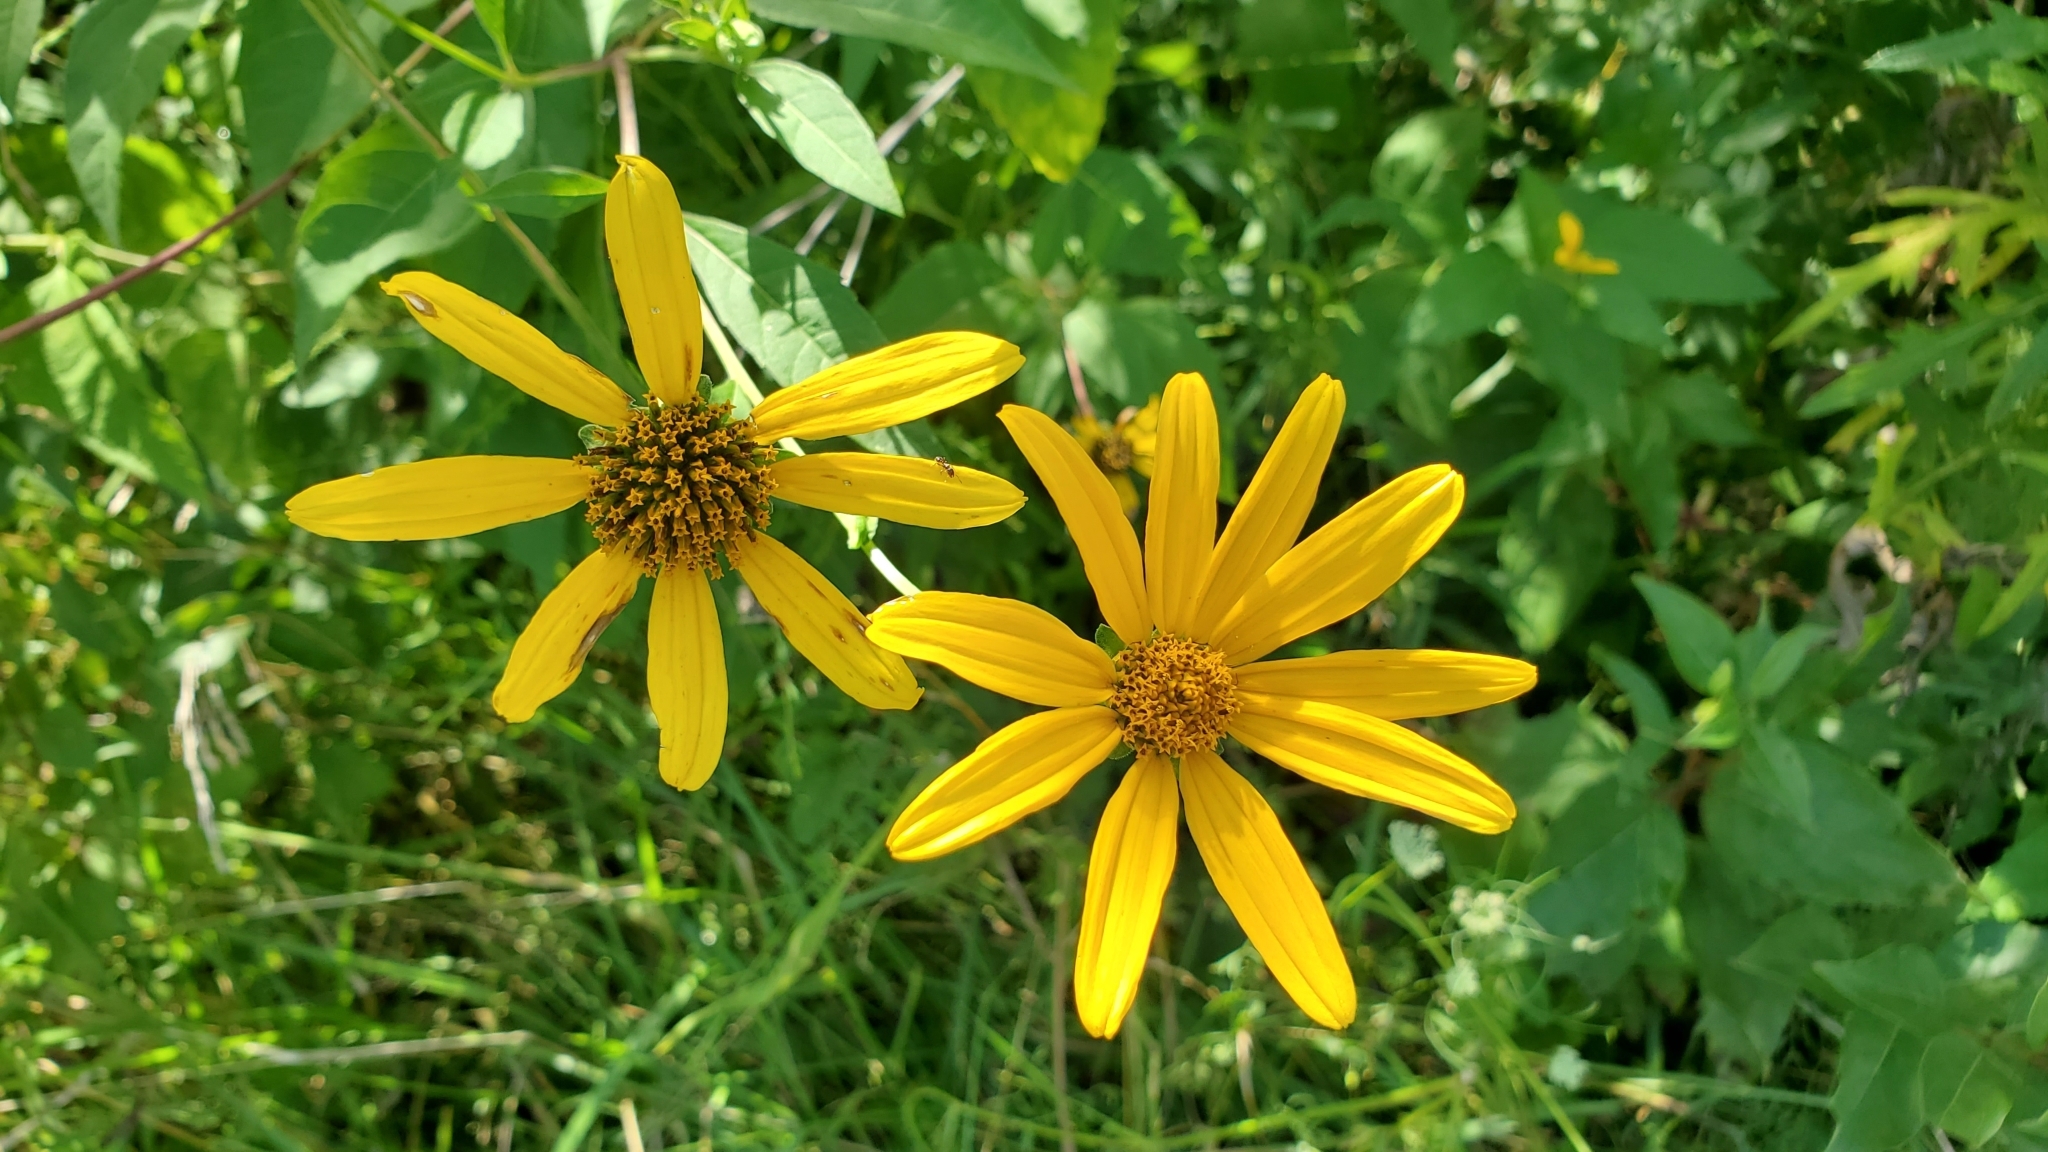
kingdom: Plantae
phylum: Tracheophyta
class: Magnoliopsida
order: Asterales
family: Asteraceae
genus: Heliopsis
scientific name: Heliopsis helianthoides
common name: False sunflower
